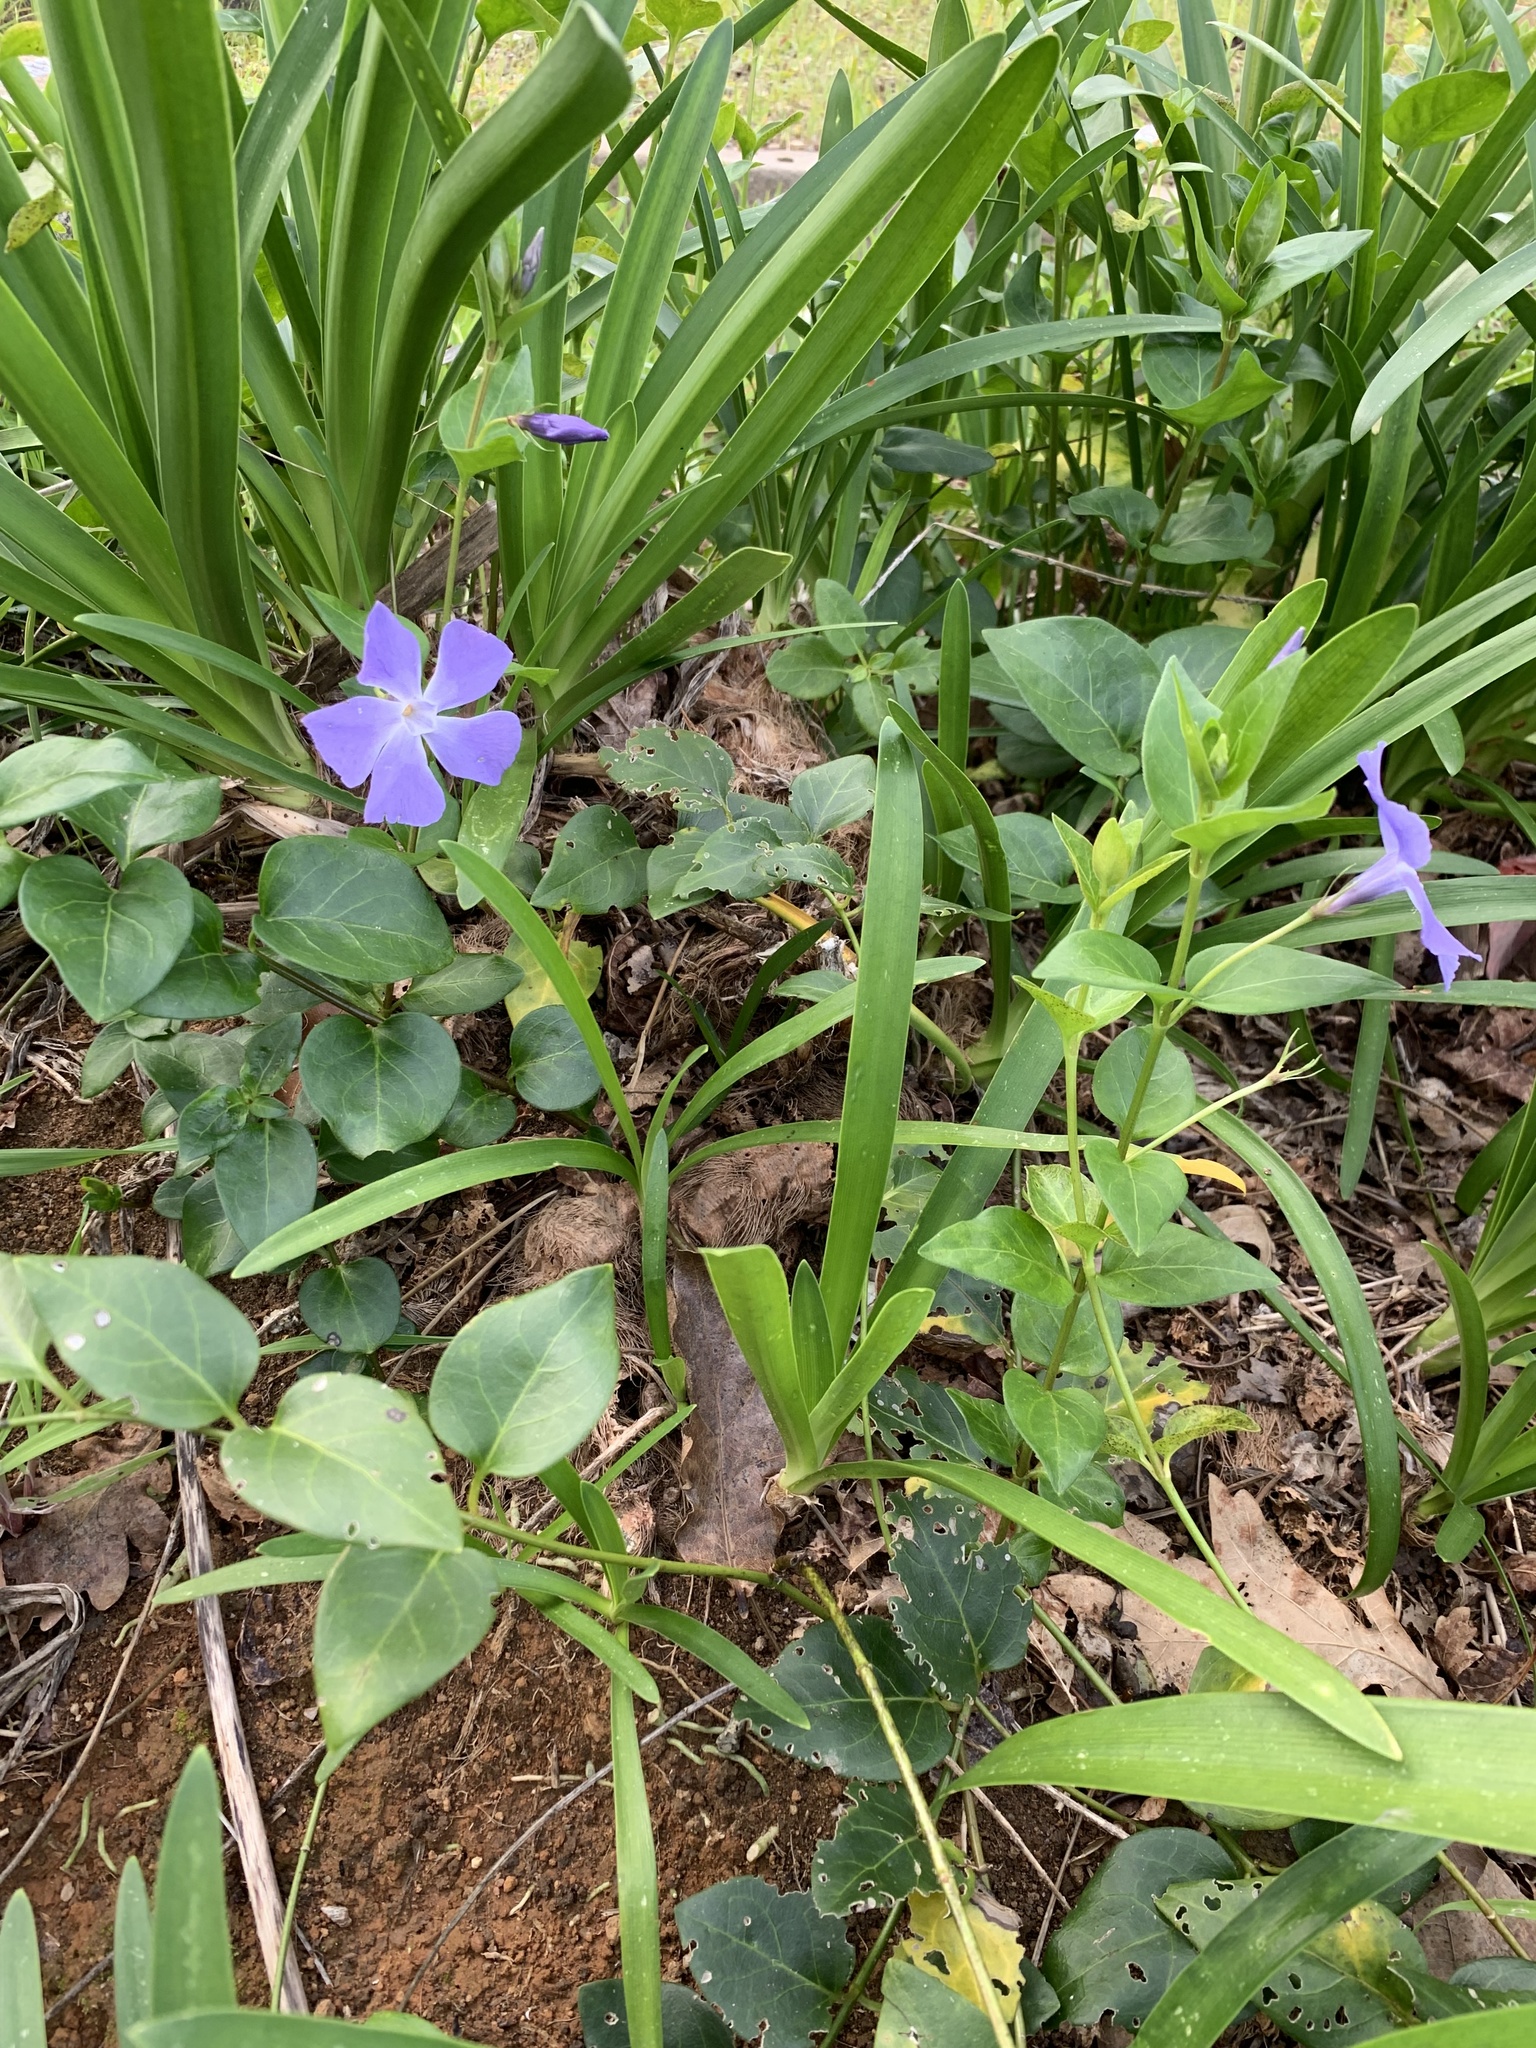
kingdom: Plantae
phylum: Tracheophyta
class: Magnoliopsida
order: Gentianales
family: Apocynaceae
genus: Vinca
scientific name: Vinca major
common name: Greater periwinkle
